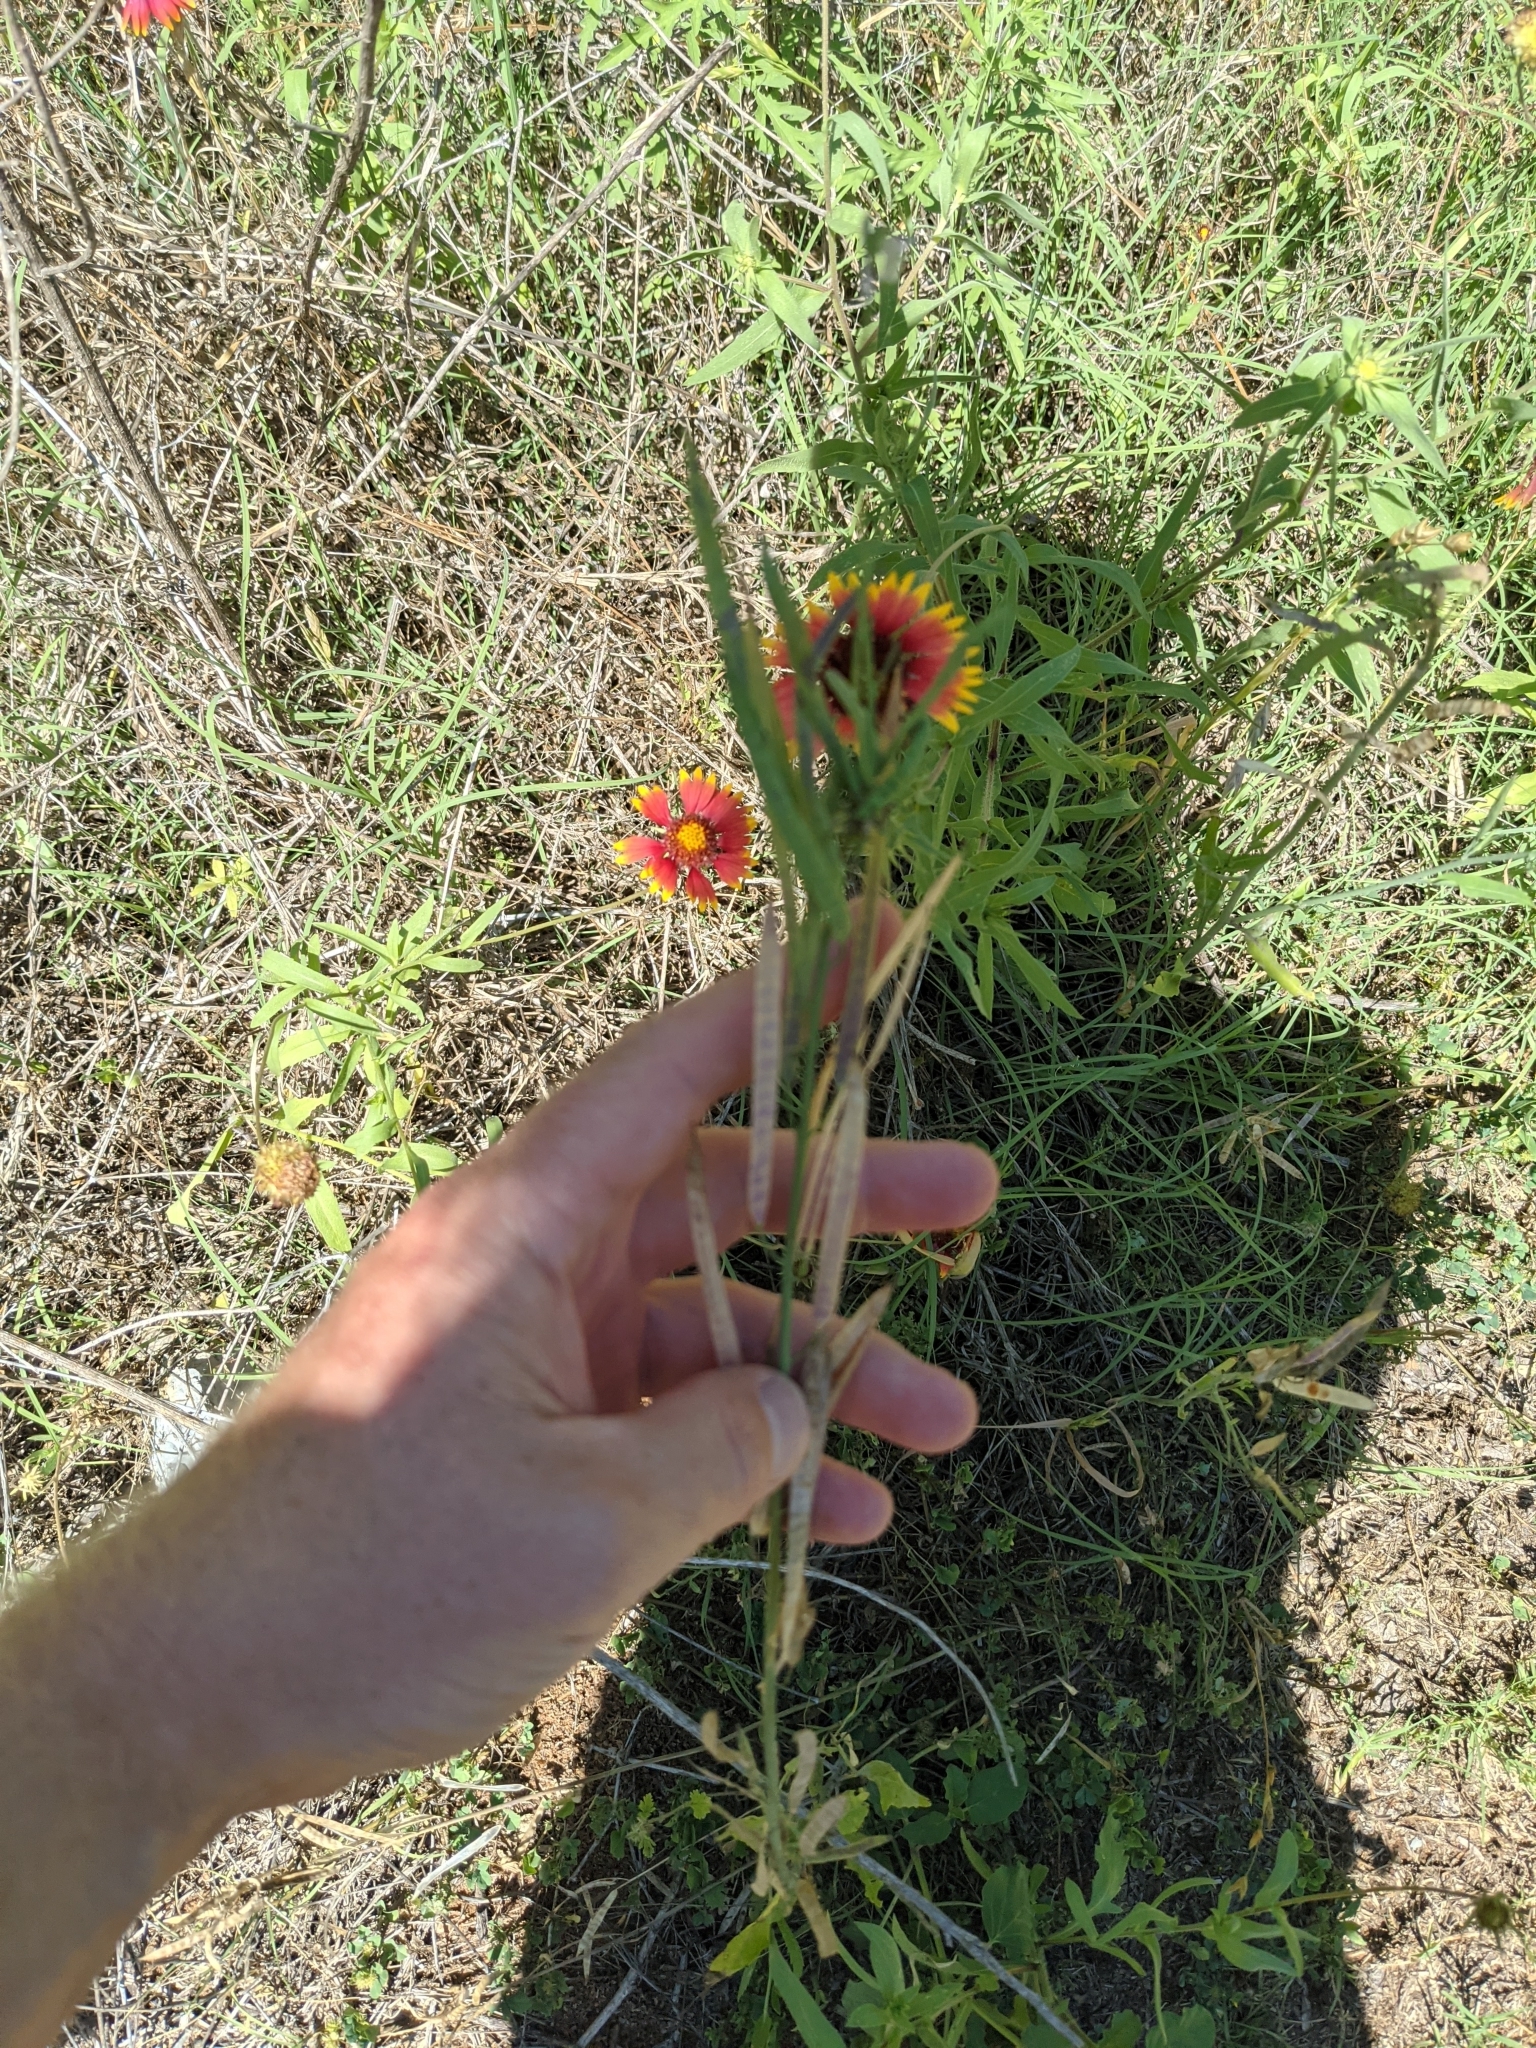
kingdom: Plantae
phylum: Tracheophyta
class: Magnoliopsida
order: Brassicales
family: Brassicaceae
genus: Streptanthus
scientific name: Streptanthus petiolaris
